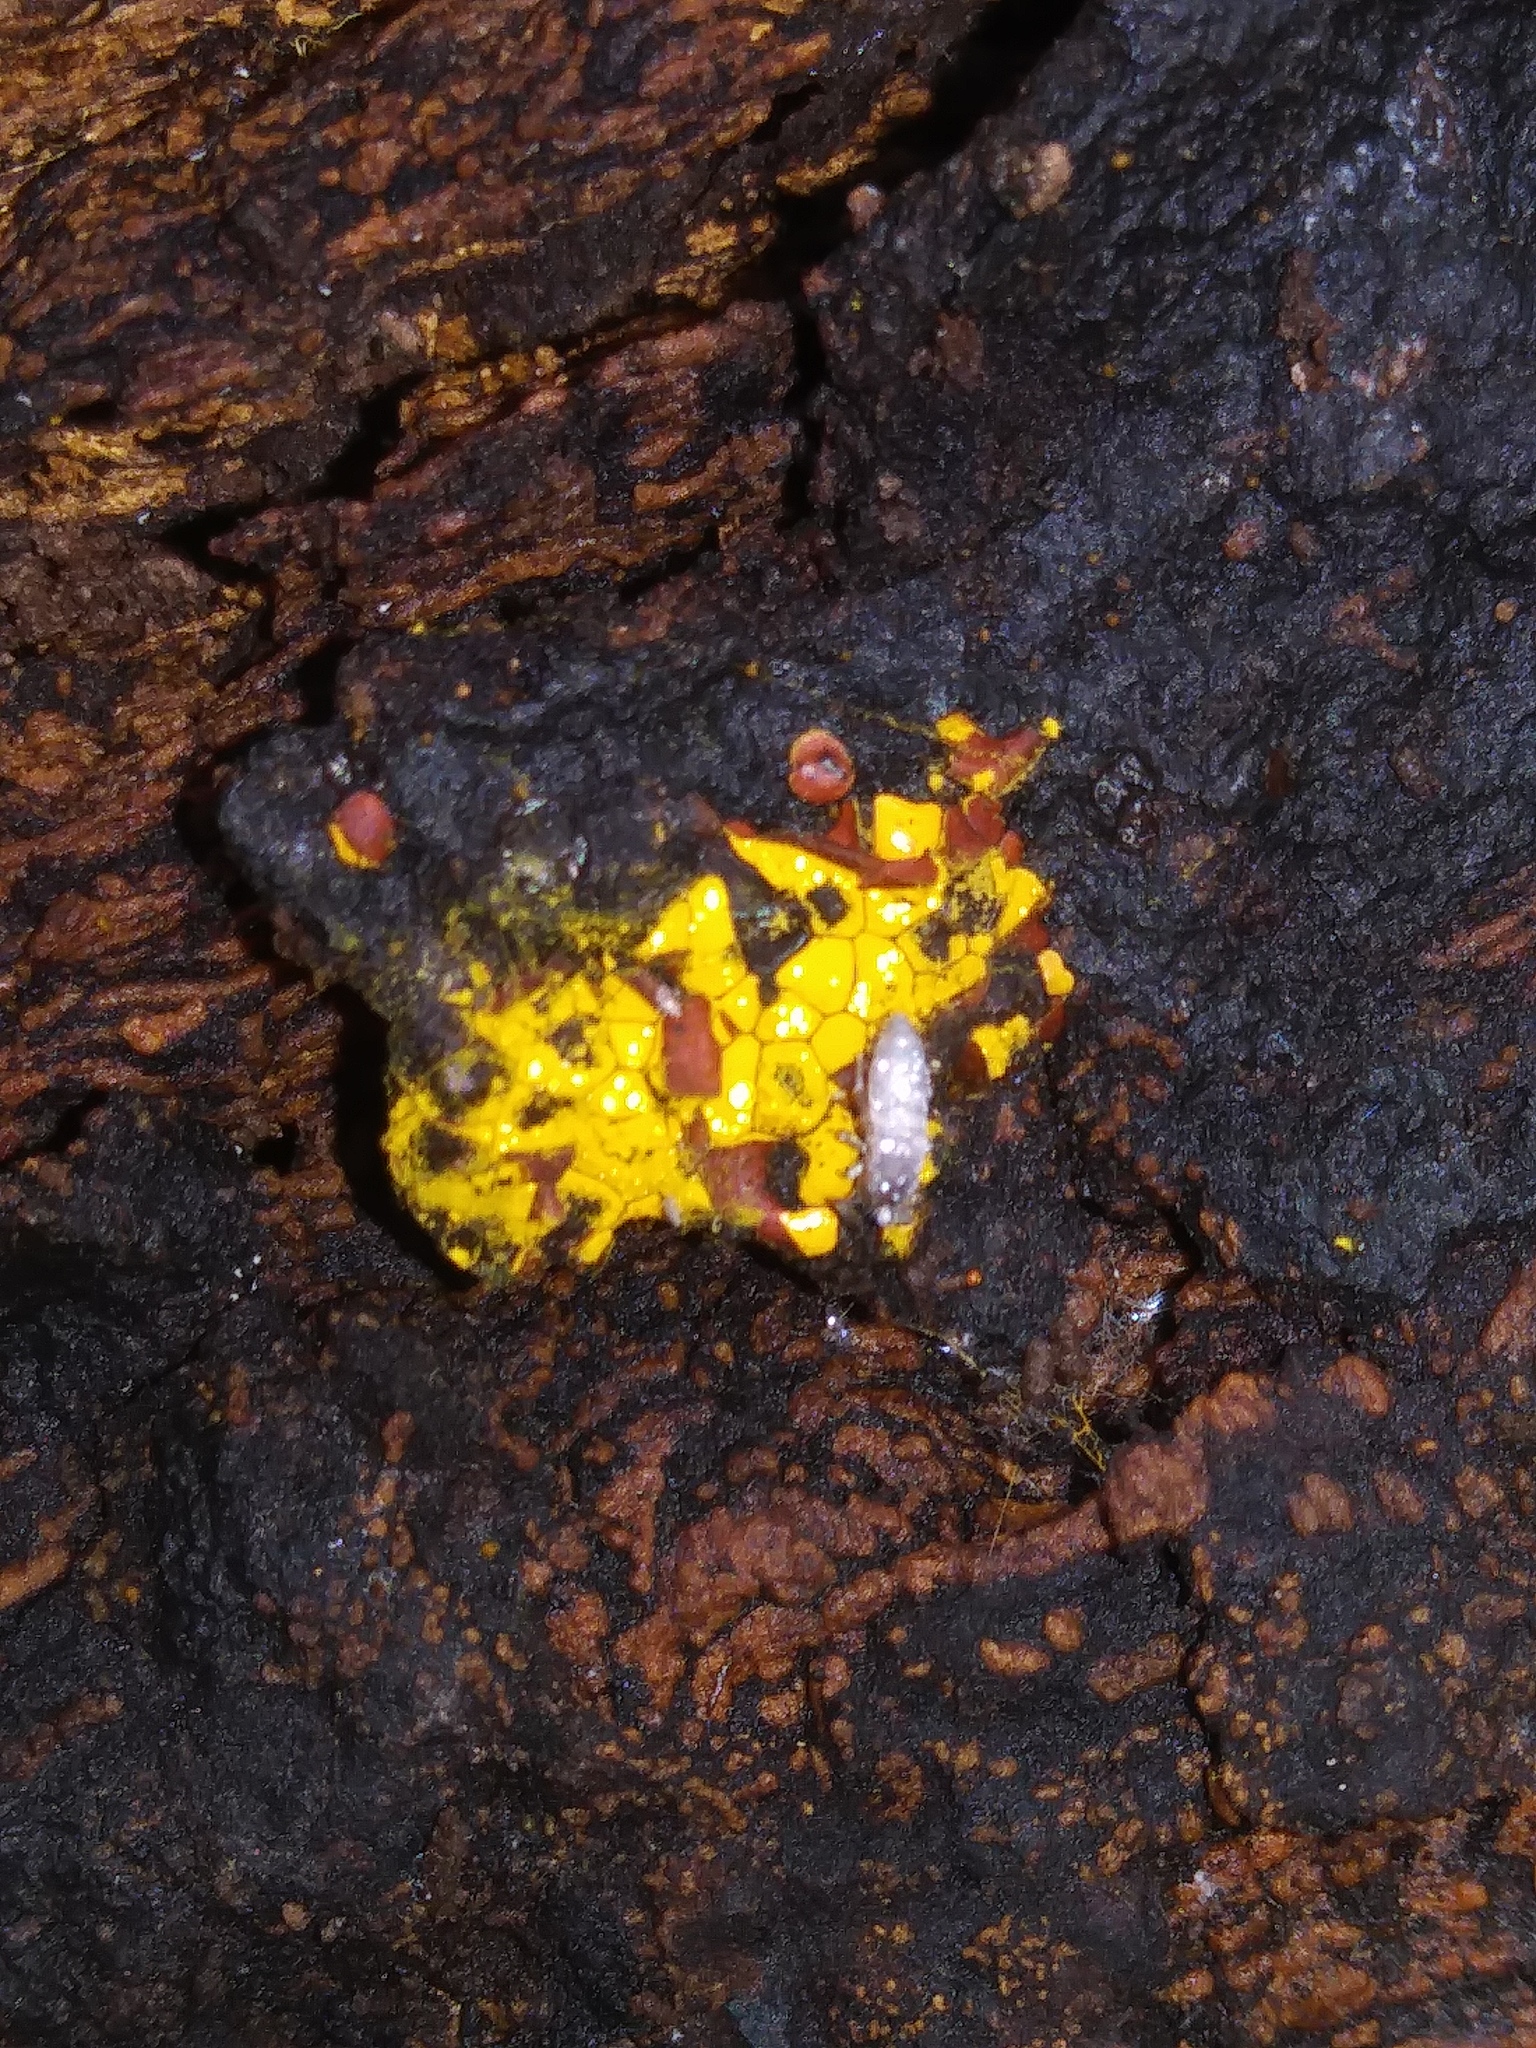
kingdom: Protozoa
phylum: Mycetozoa
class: Myxomycetes
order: Trichiales
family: Trichiaceae
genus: Perichaena
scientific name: Perichaena depressa
